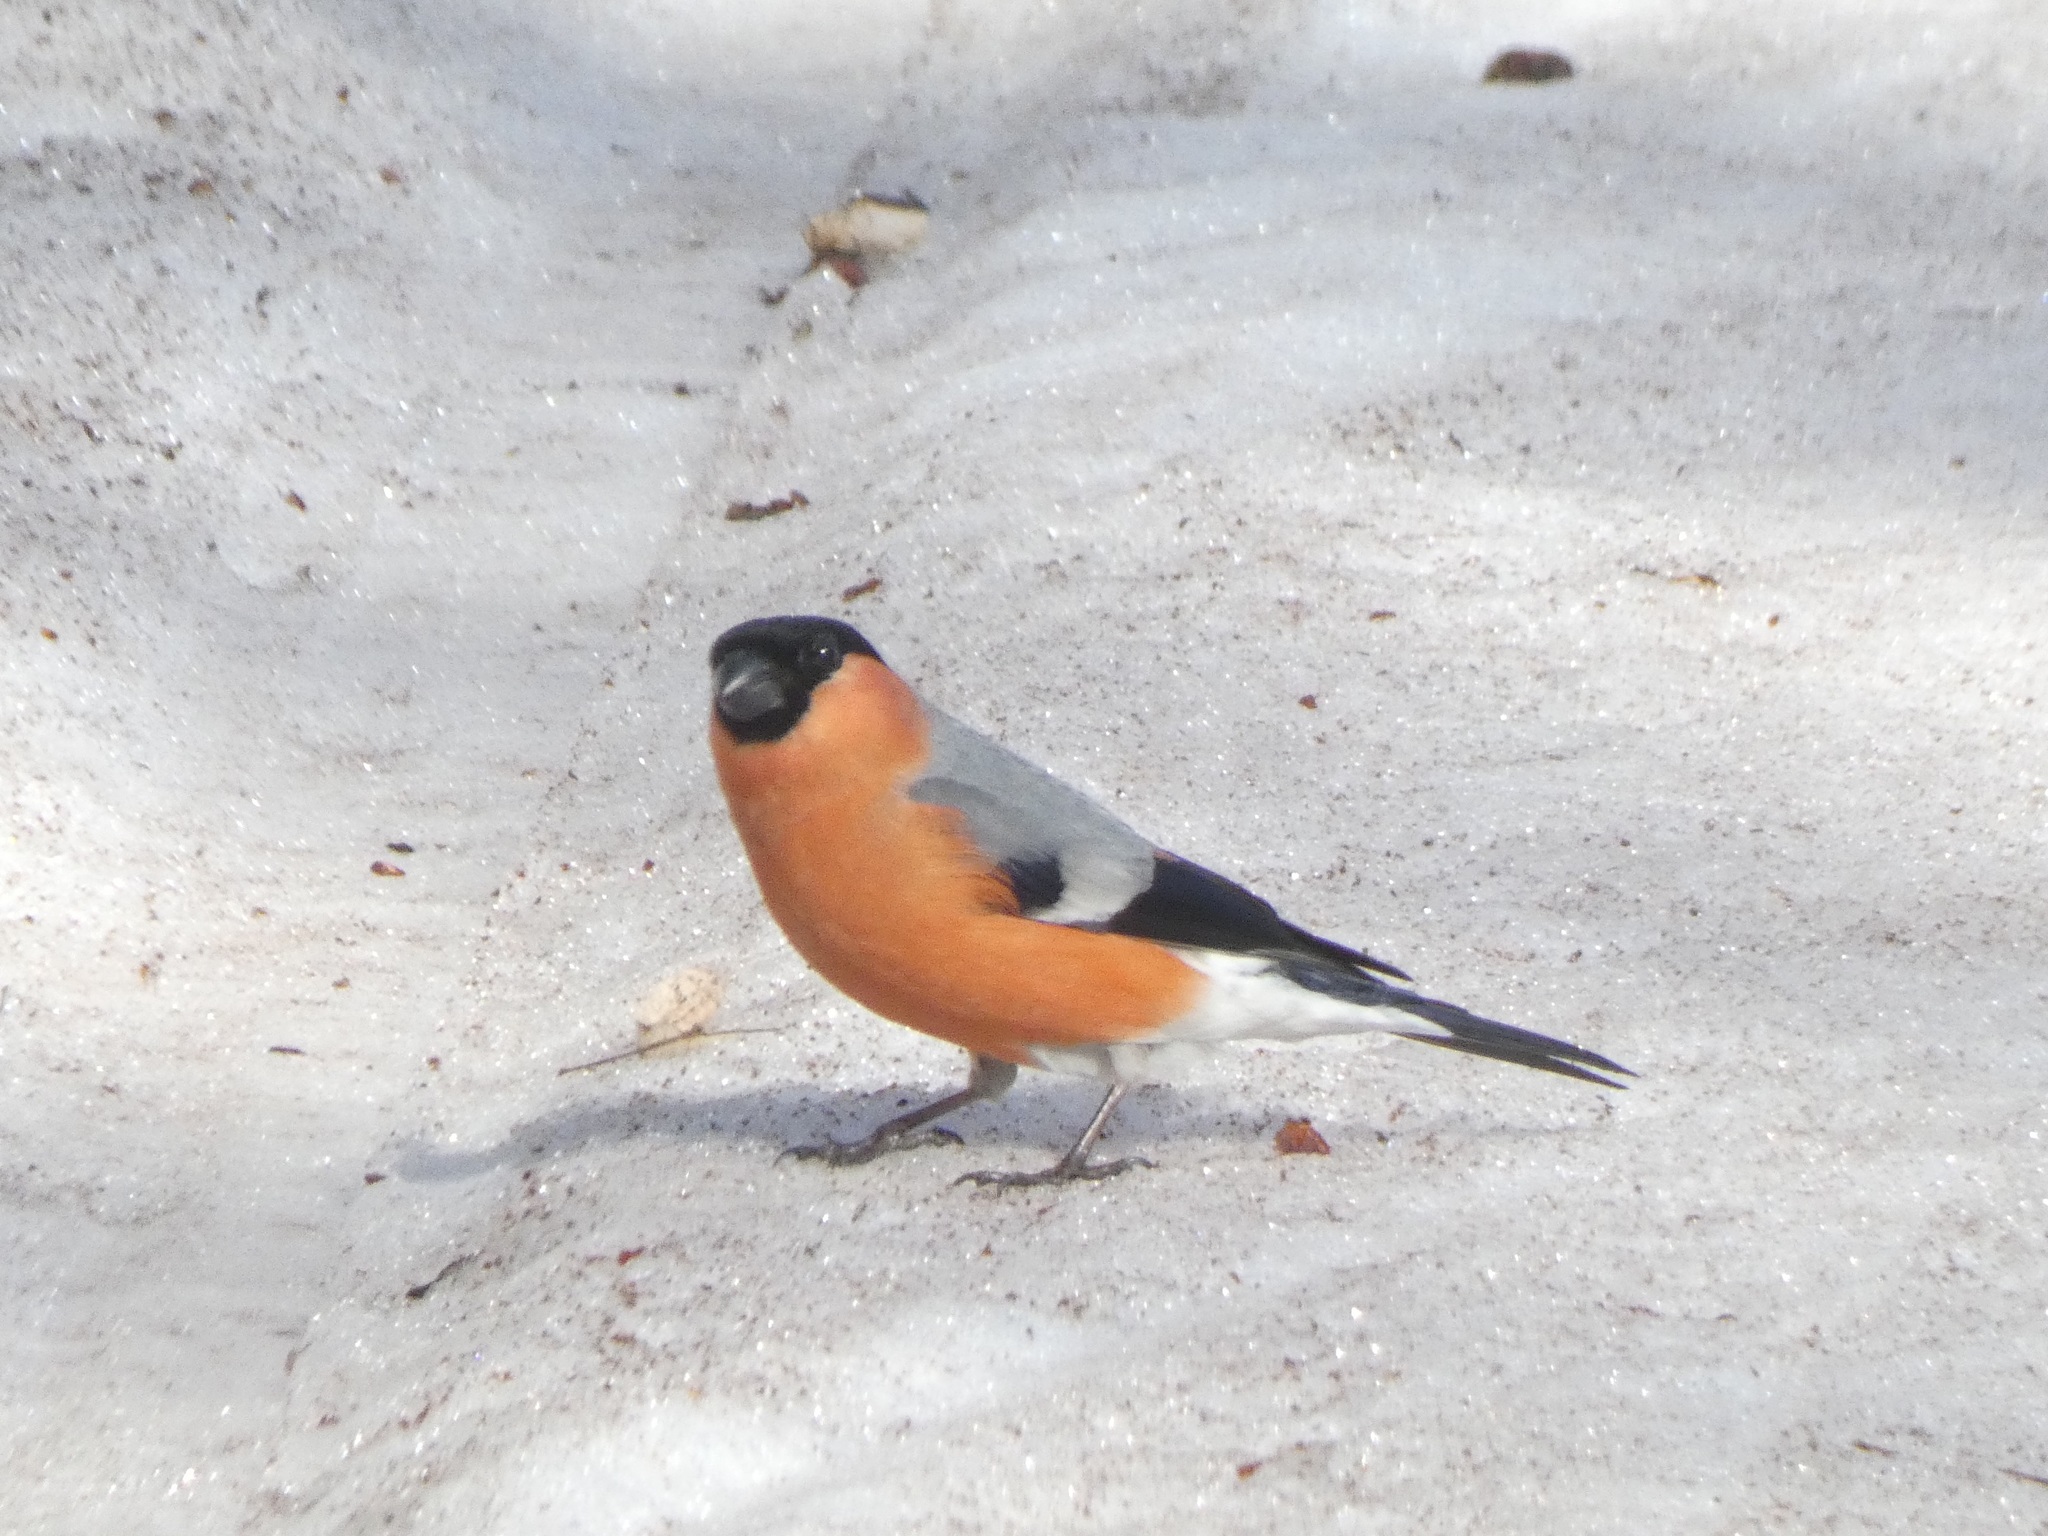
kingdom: Animalia
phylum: Chordata
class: Aves
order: Passeriformes
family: Fringillidae
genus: Pyrrhula
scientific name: Pyrrhula pyrrhula
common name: Eurasian bullfinch
